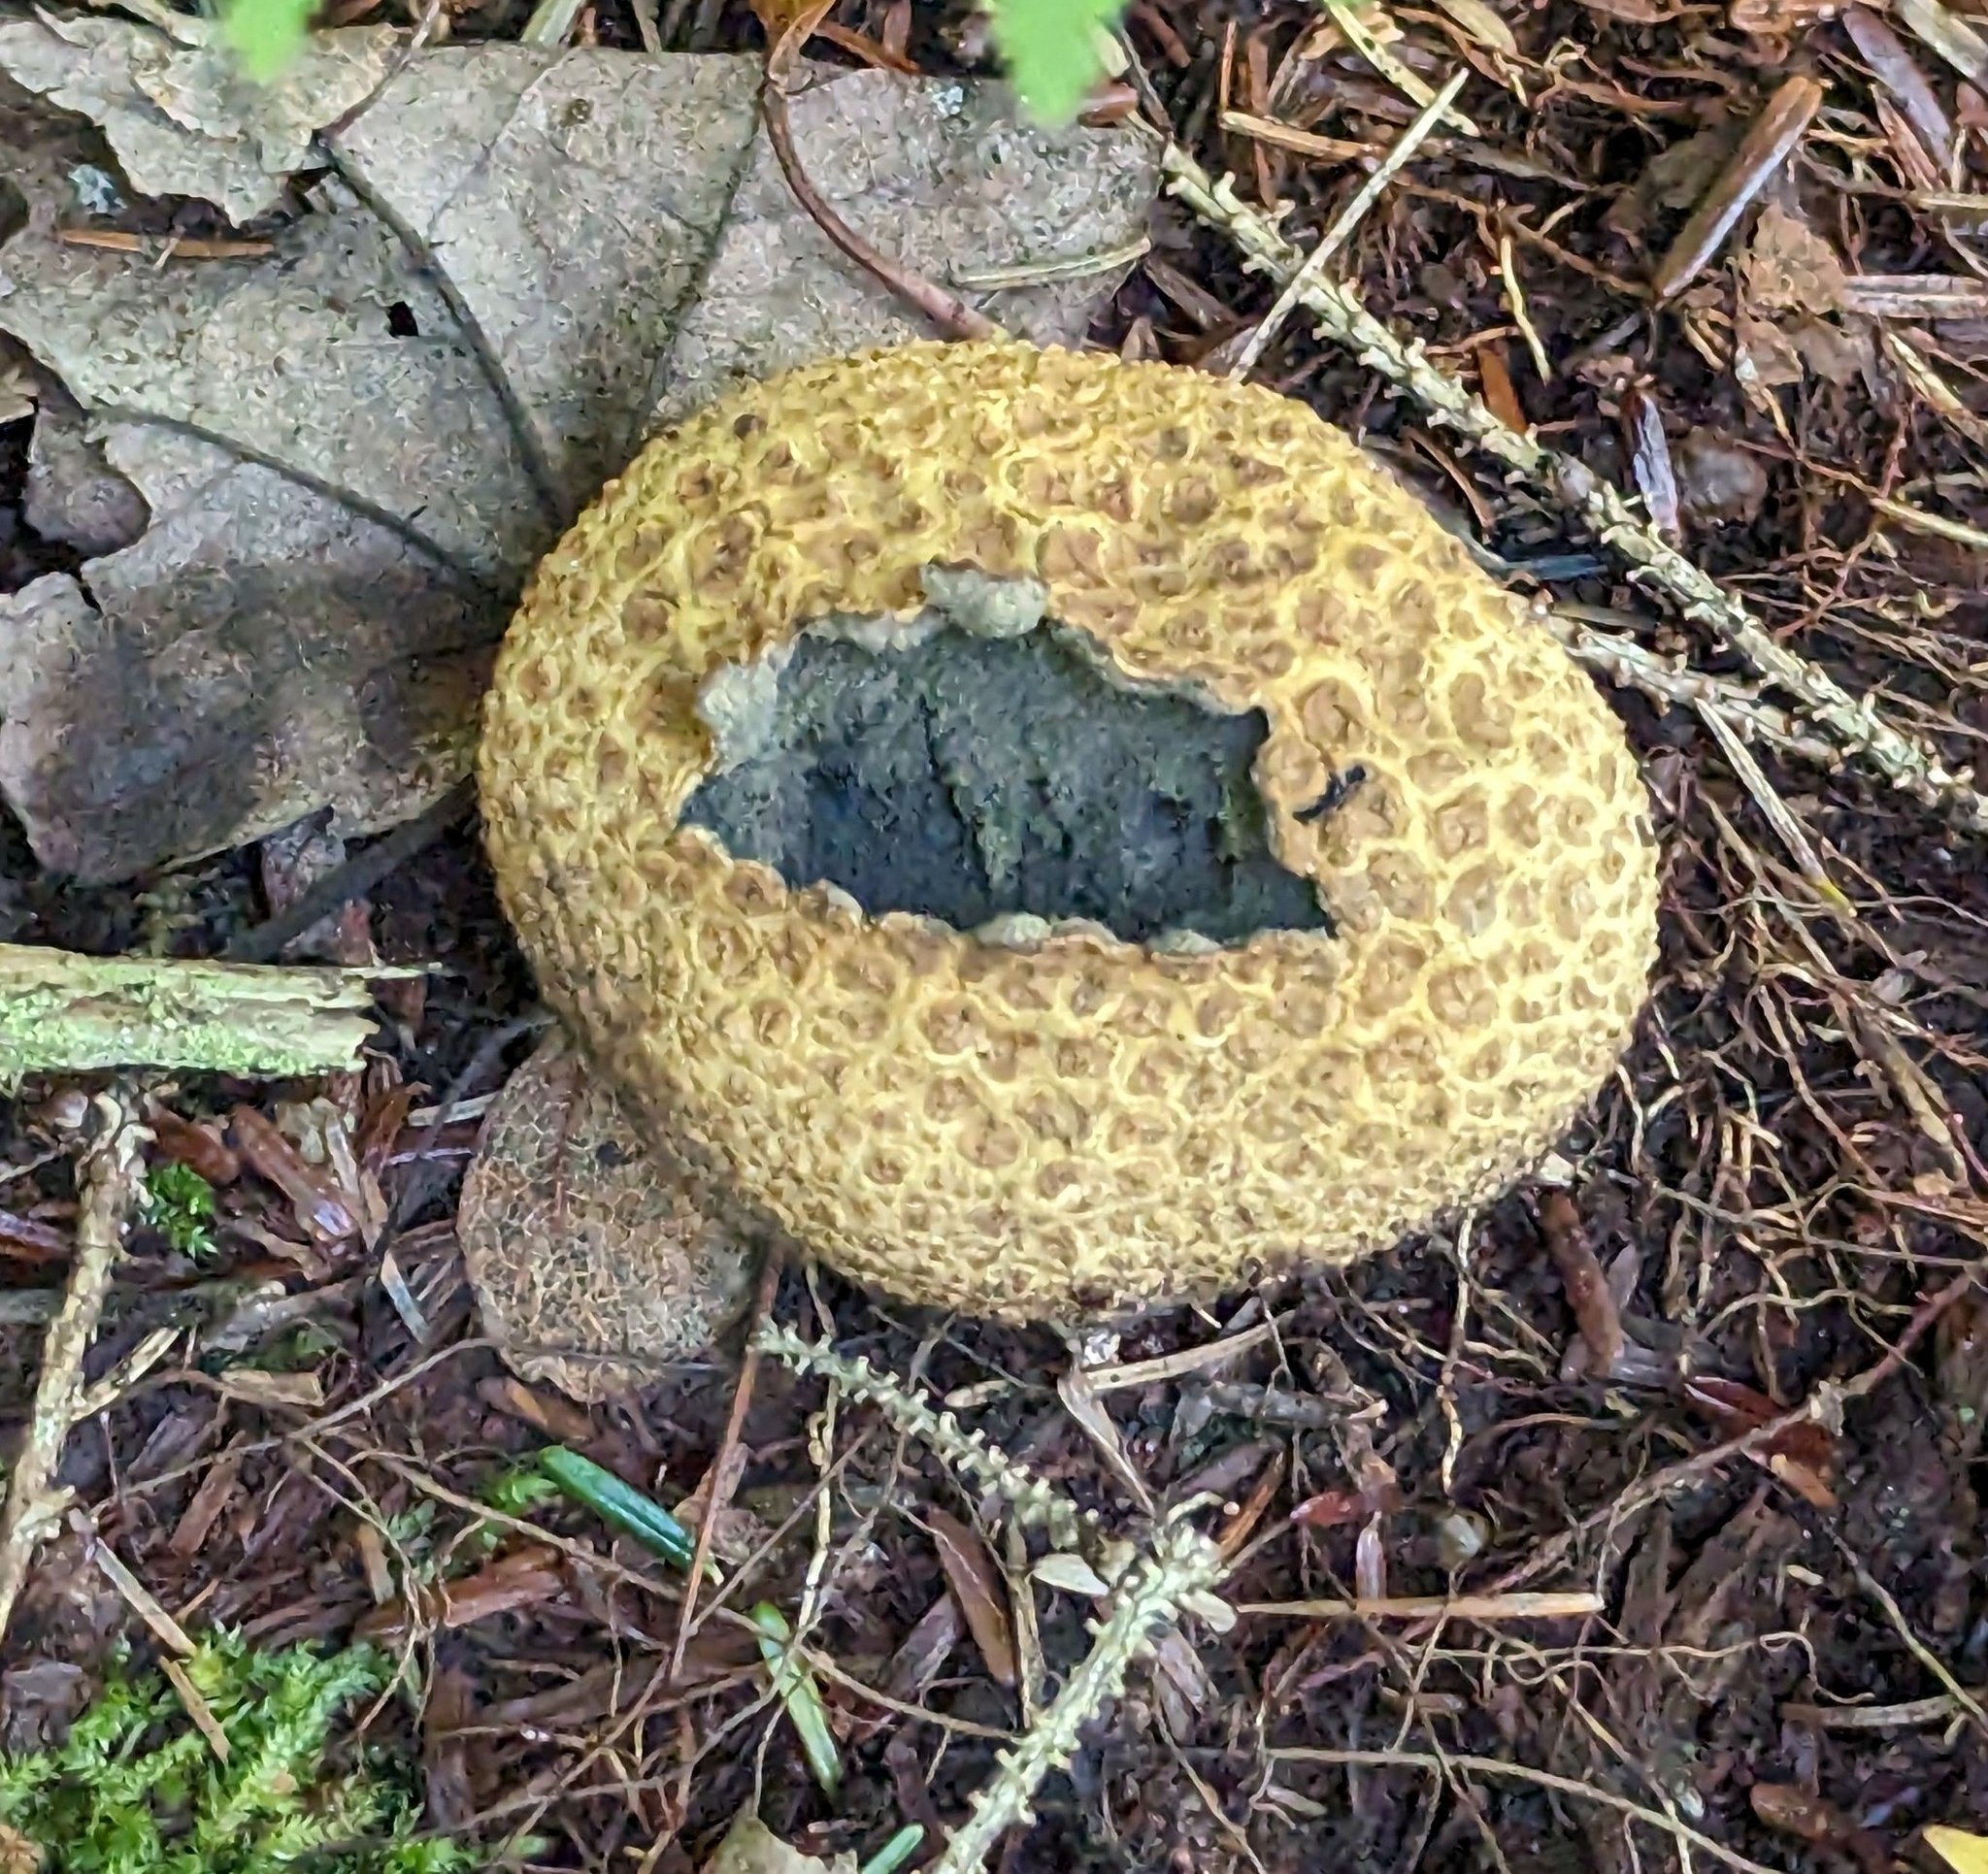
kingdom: Fungi
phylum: Basidiomycota
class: Agaricomycetes
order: Boletales
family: Sclerodermataceae
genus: Scleroderma
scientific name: Scleroderma citrinum
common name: Common earthball
